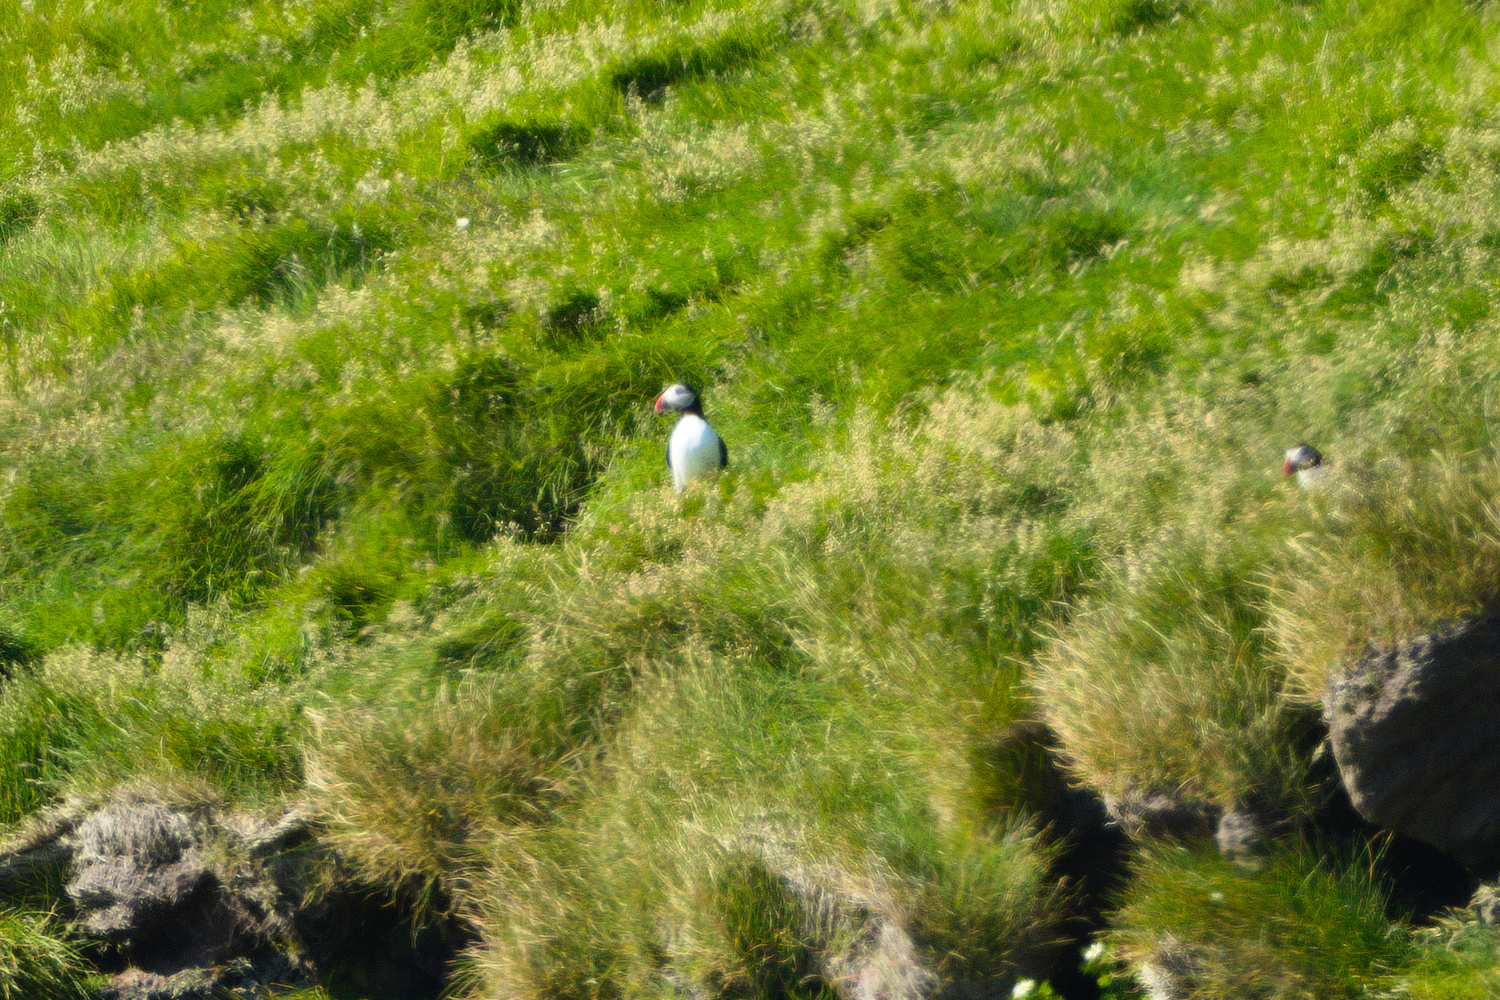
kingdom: Animalia
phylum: Chordata
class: Aves
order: Charadriiformes
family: Alcidae
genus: Fratercula
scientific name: Fratercula arctica
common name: Atlantic puffin
